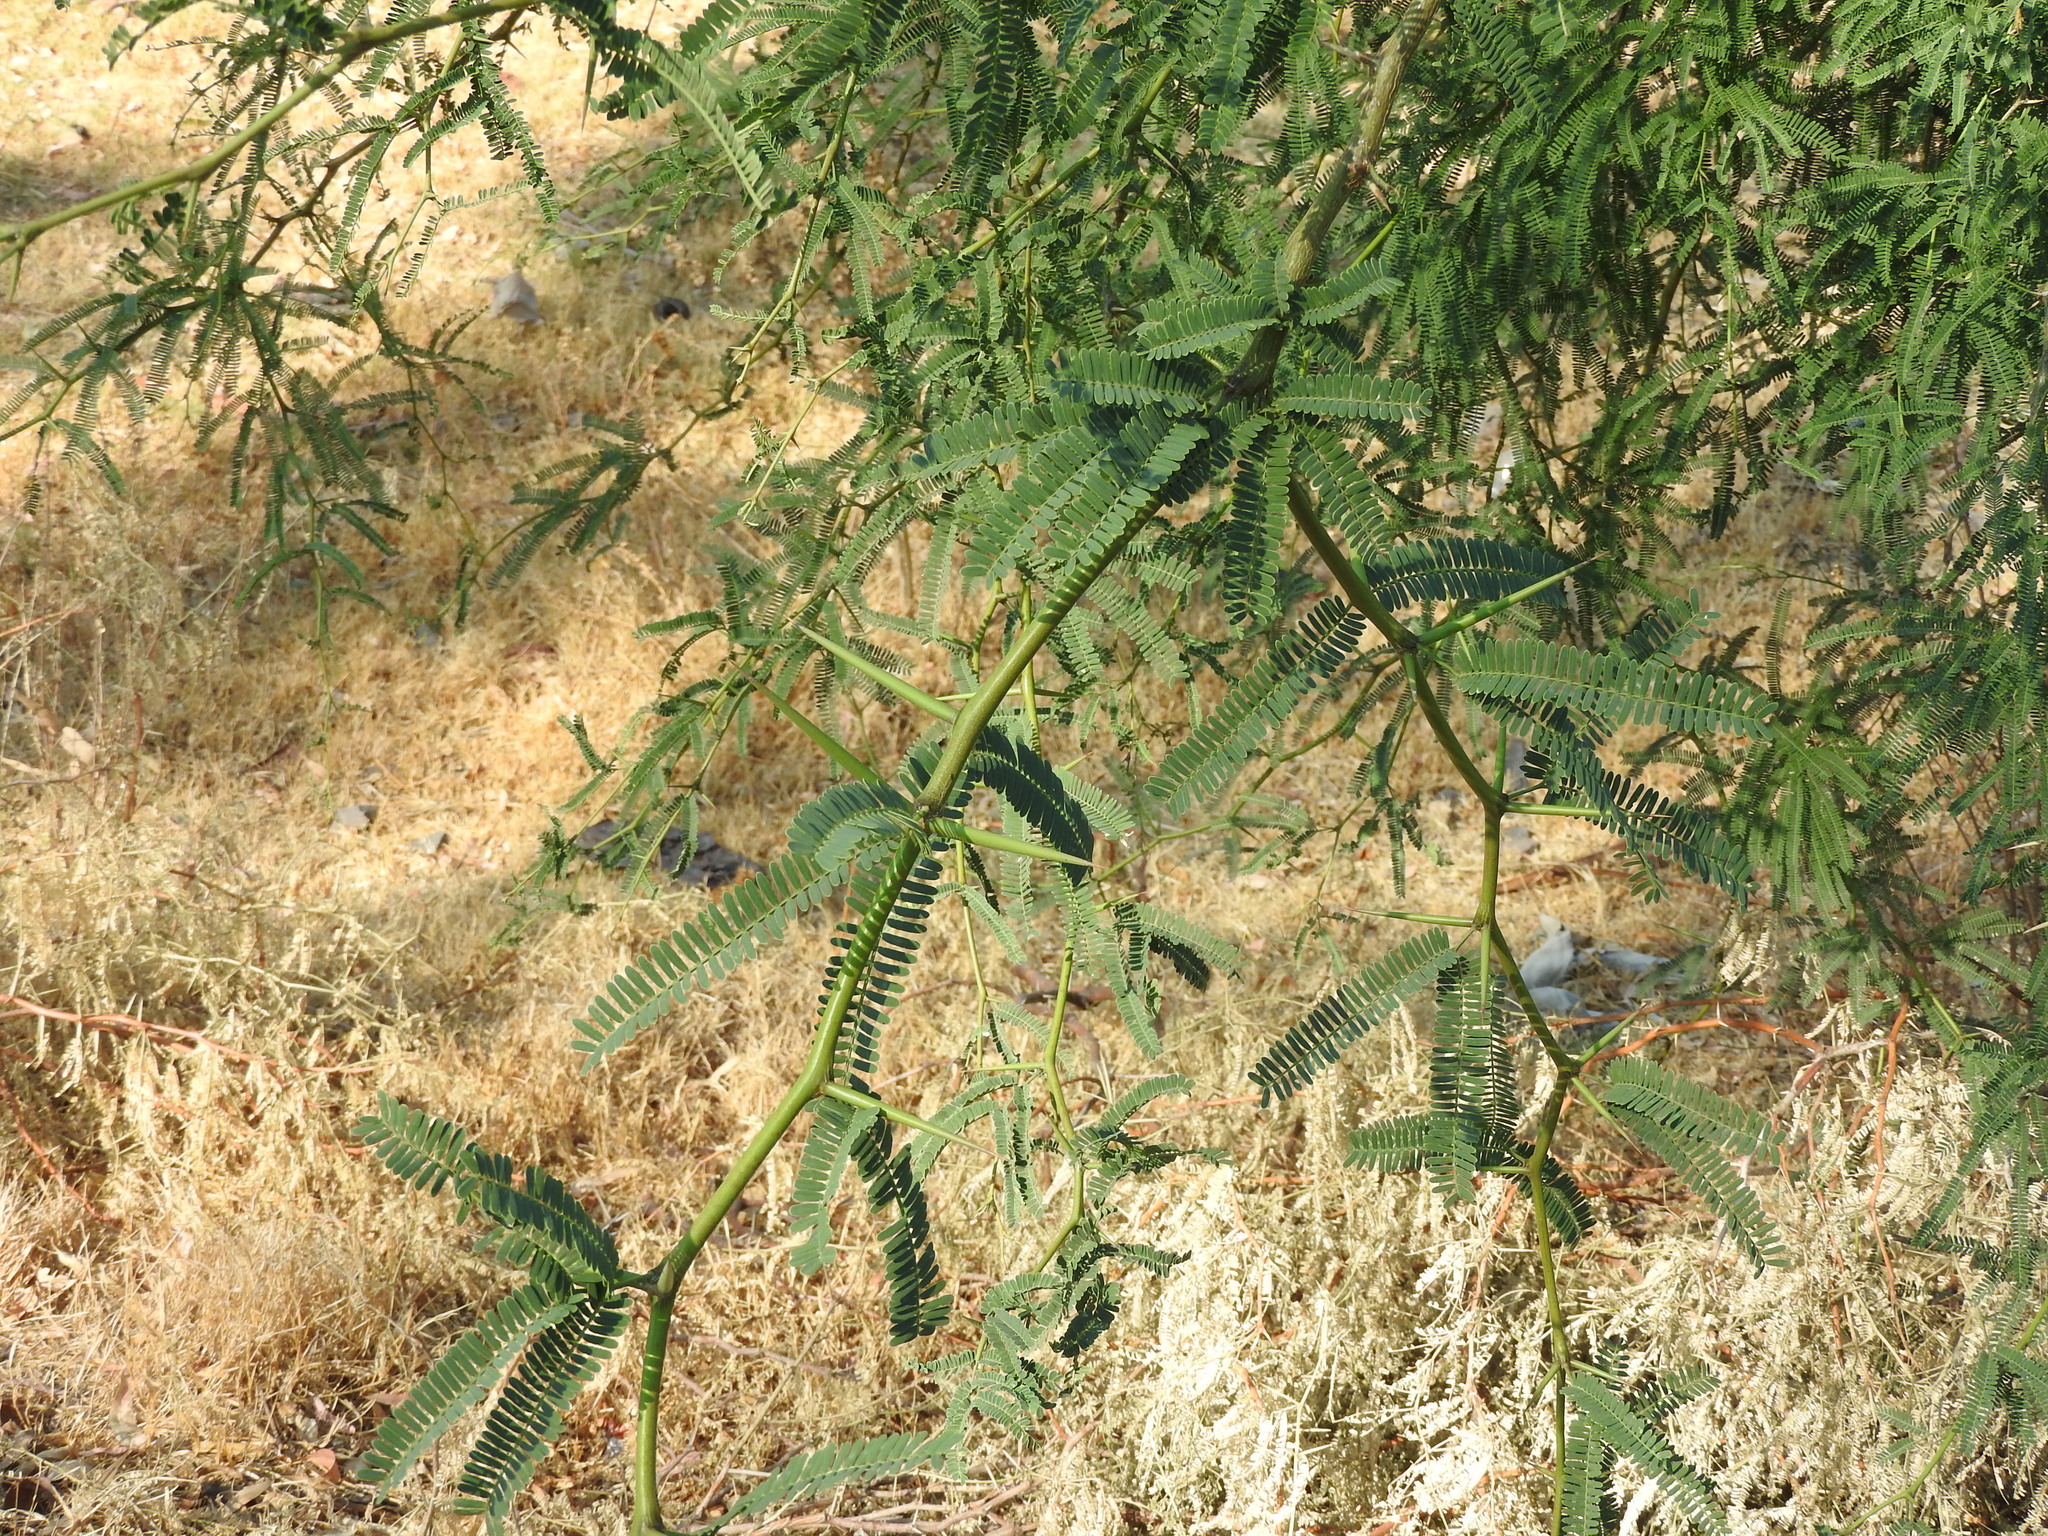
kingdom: Plantae
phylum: Tracheophyta
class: Magnoliopsida
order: Fabales
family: Fabaceae
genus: Prosopis
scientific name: Prosopis laevigata
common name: Smooth mesquite
